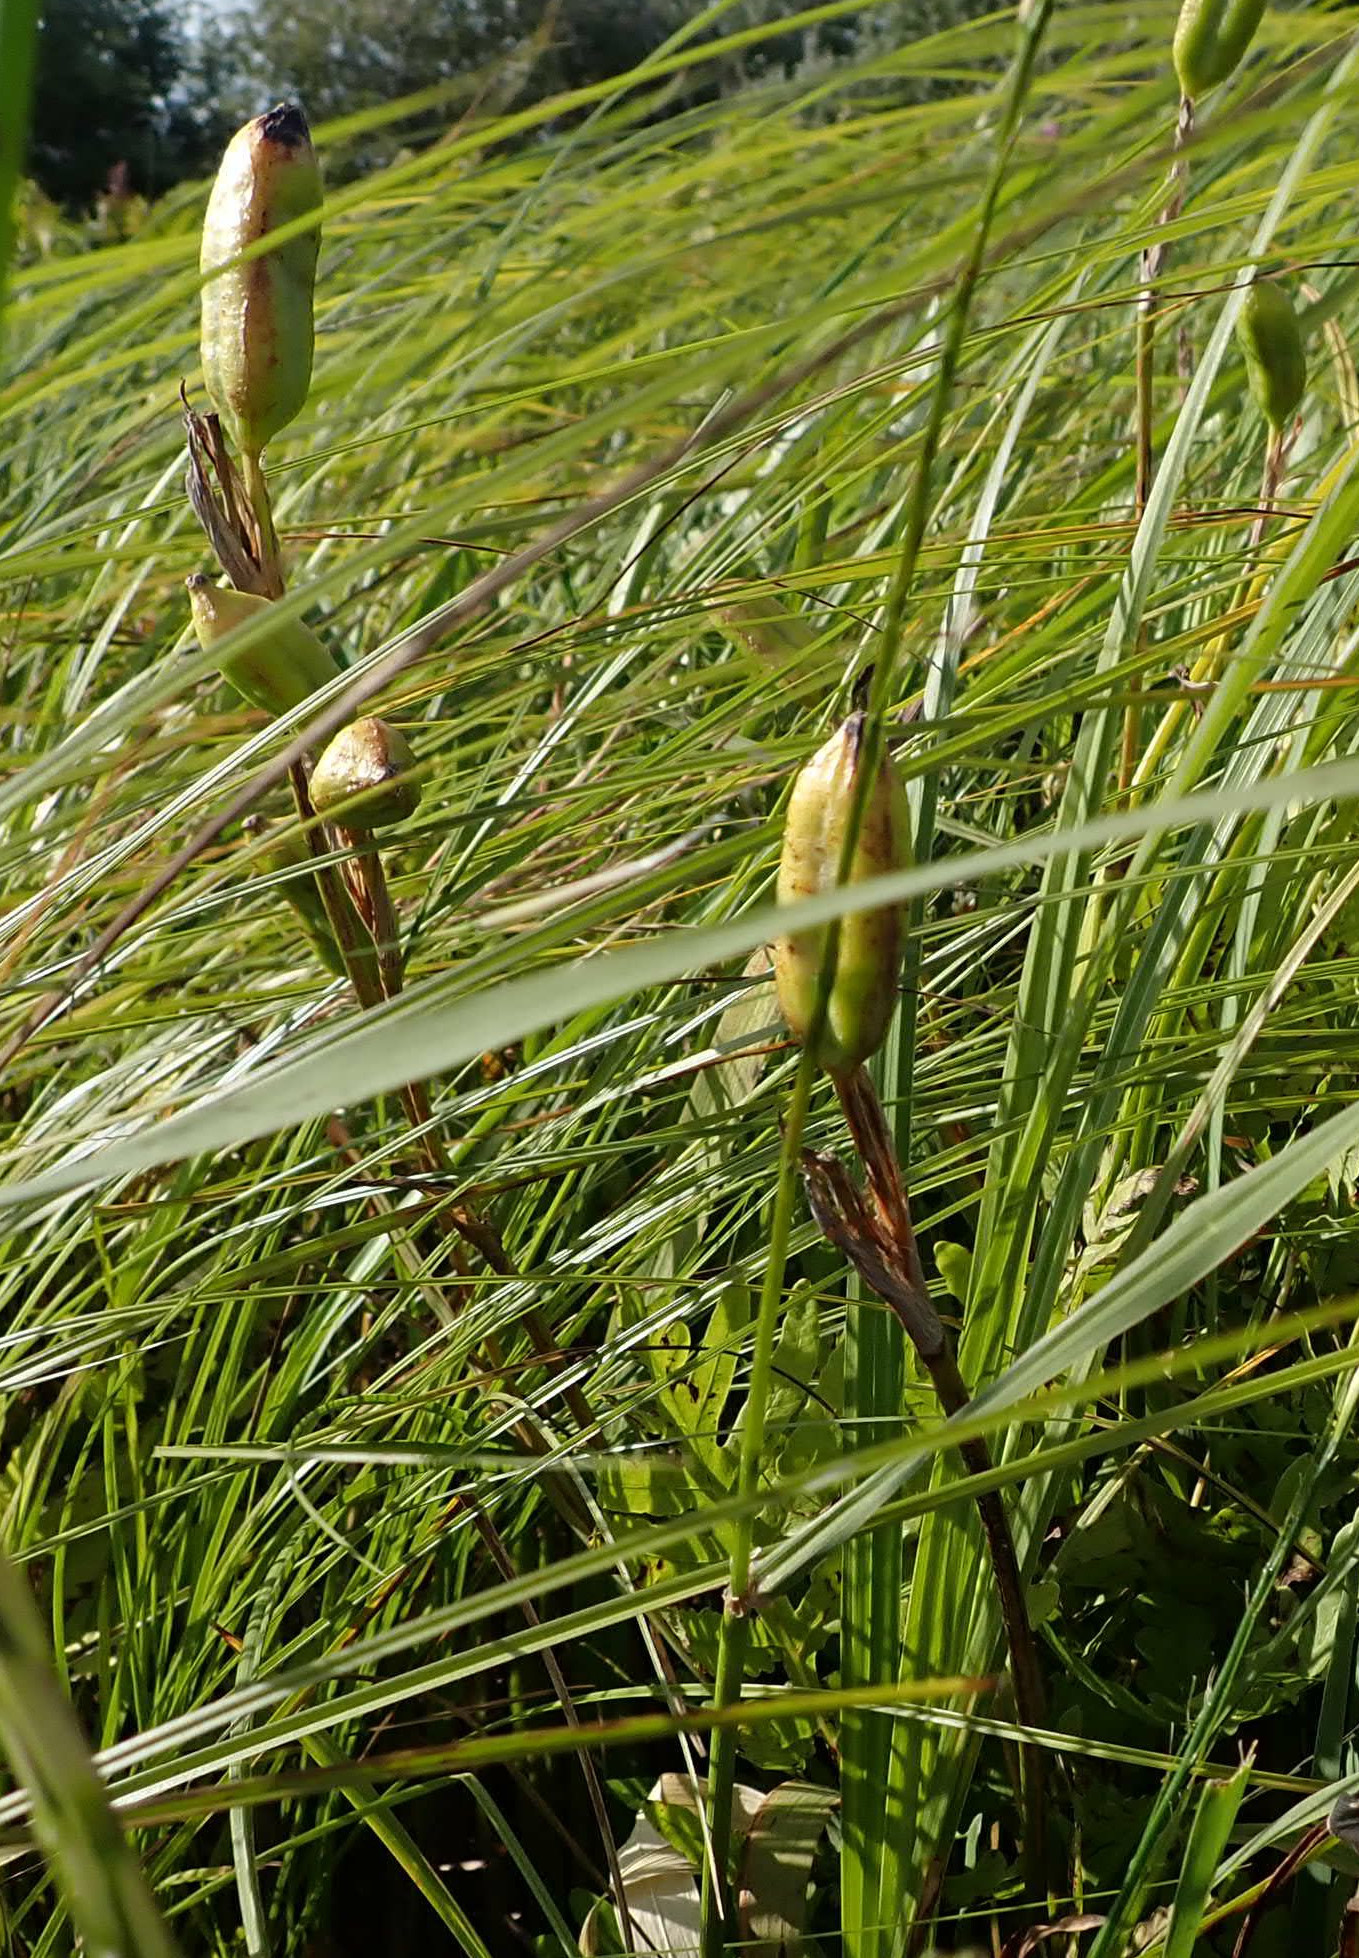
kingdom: Plantae
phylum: Tracheophyta
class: Liliopsida
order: Asparagales
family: Iridaceae
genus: Iris
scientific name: Iris versicolor
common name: Purple iris
